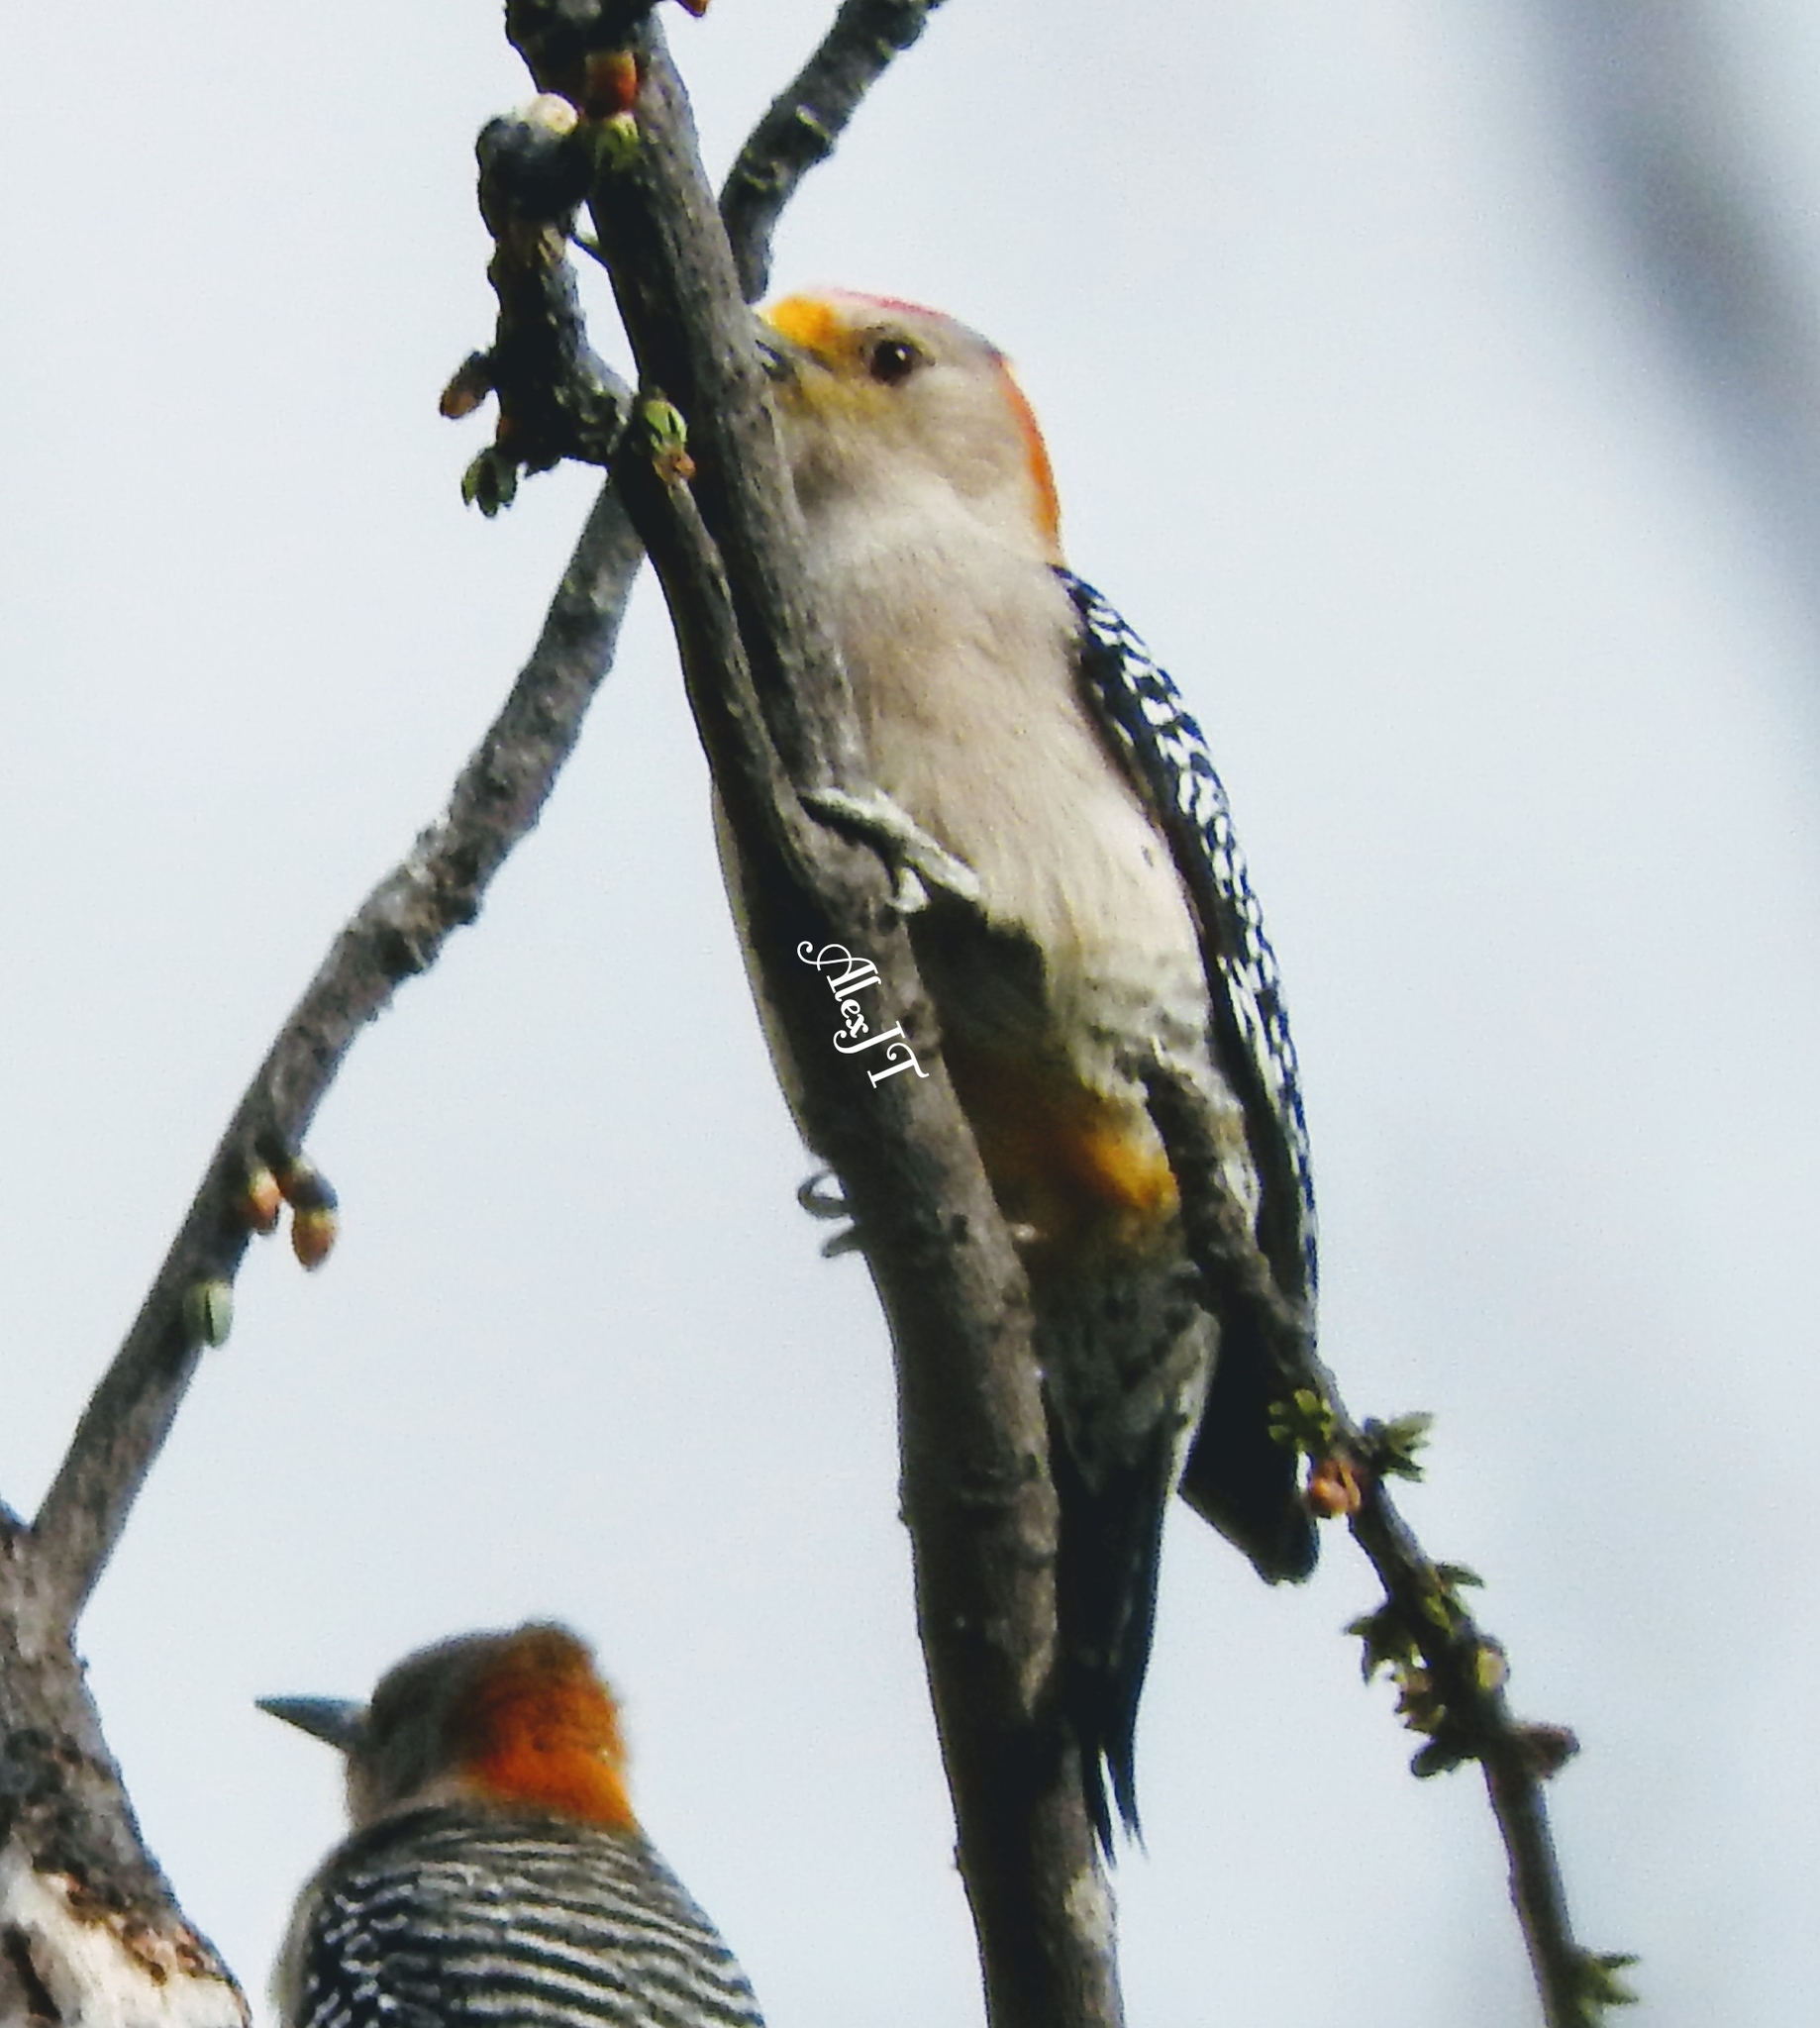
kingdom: Animalia
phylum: Chordata
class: Aves
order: Piciformes
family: Picidae
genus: Melanerpes
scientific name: Melanerpes aurifrons
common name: Golden-fronted woodpecker
